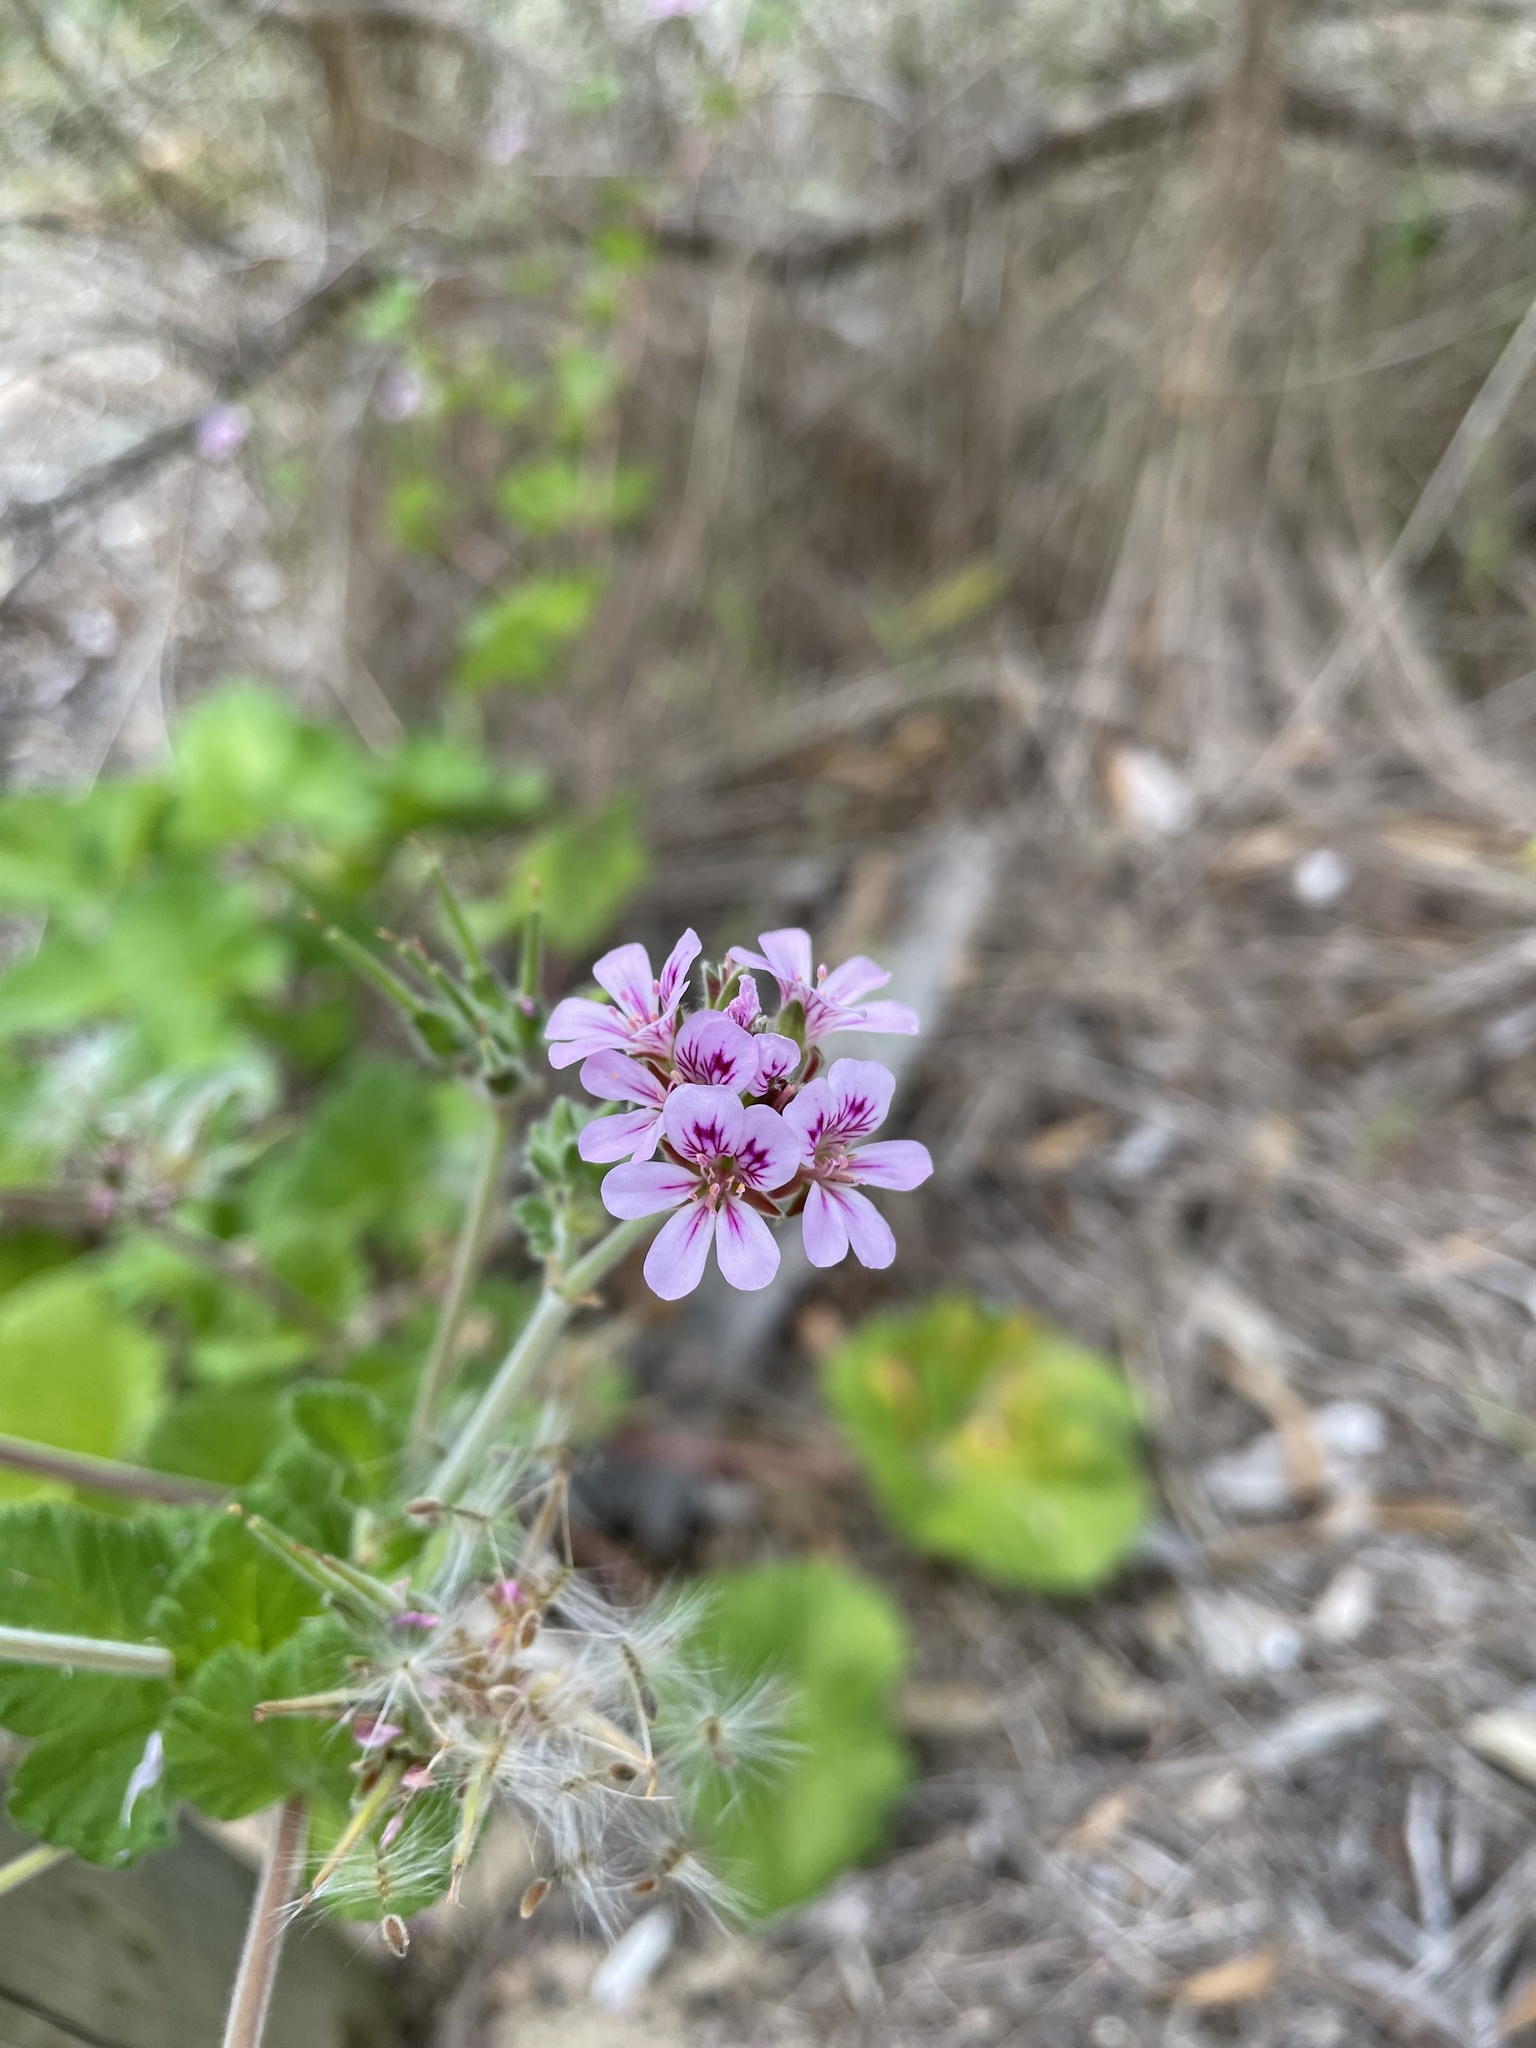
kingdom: Plantae
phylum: Tracheophyta
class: Magnoliopsida
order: Geraniales
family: Geraniaceae
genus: Pelargonium
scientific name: Pelargonium australe
